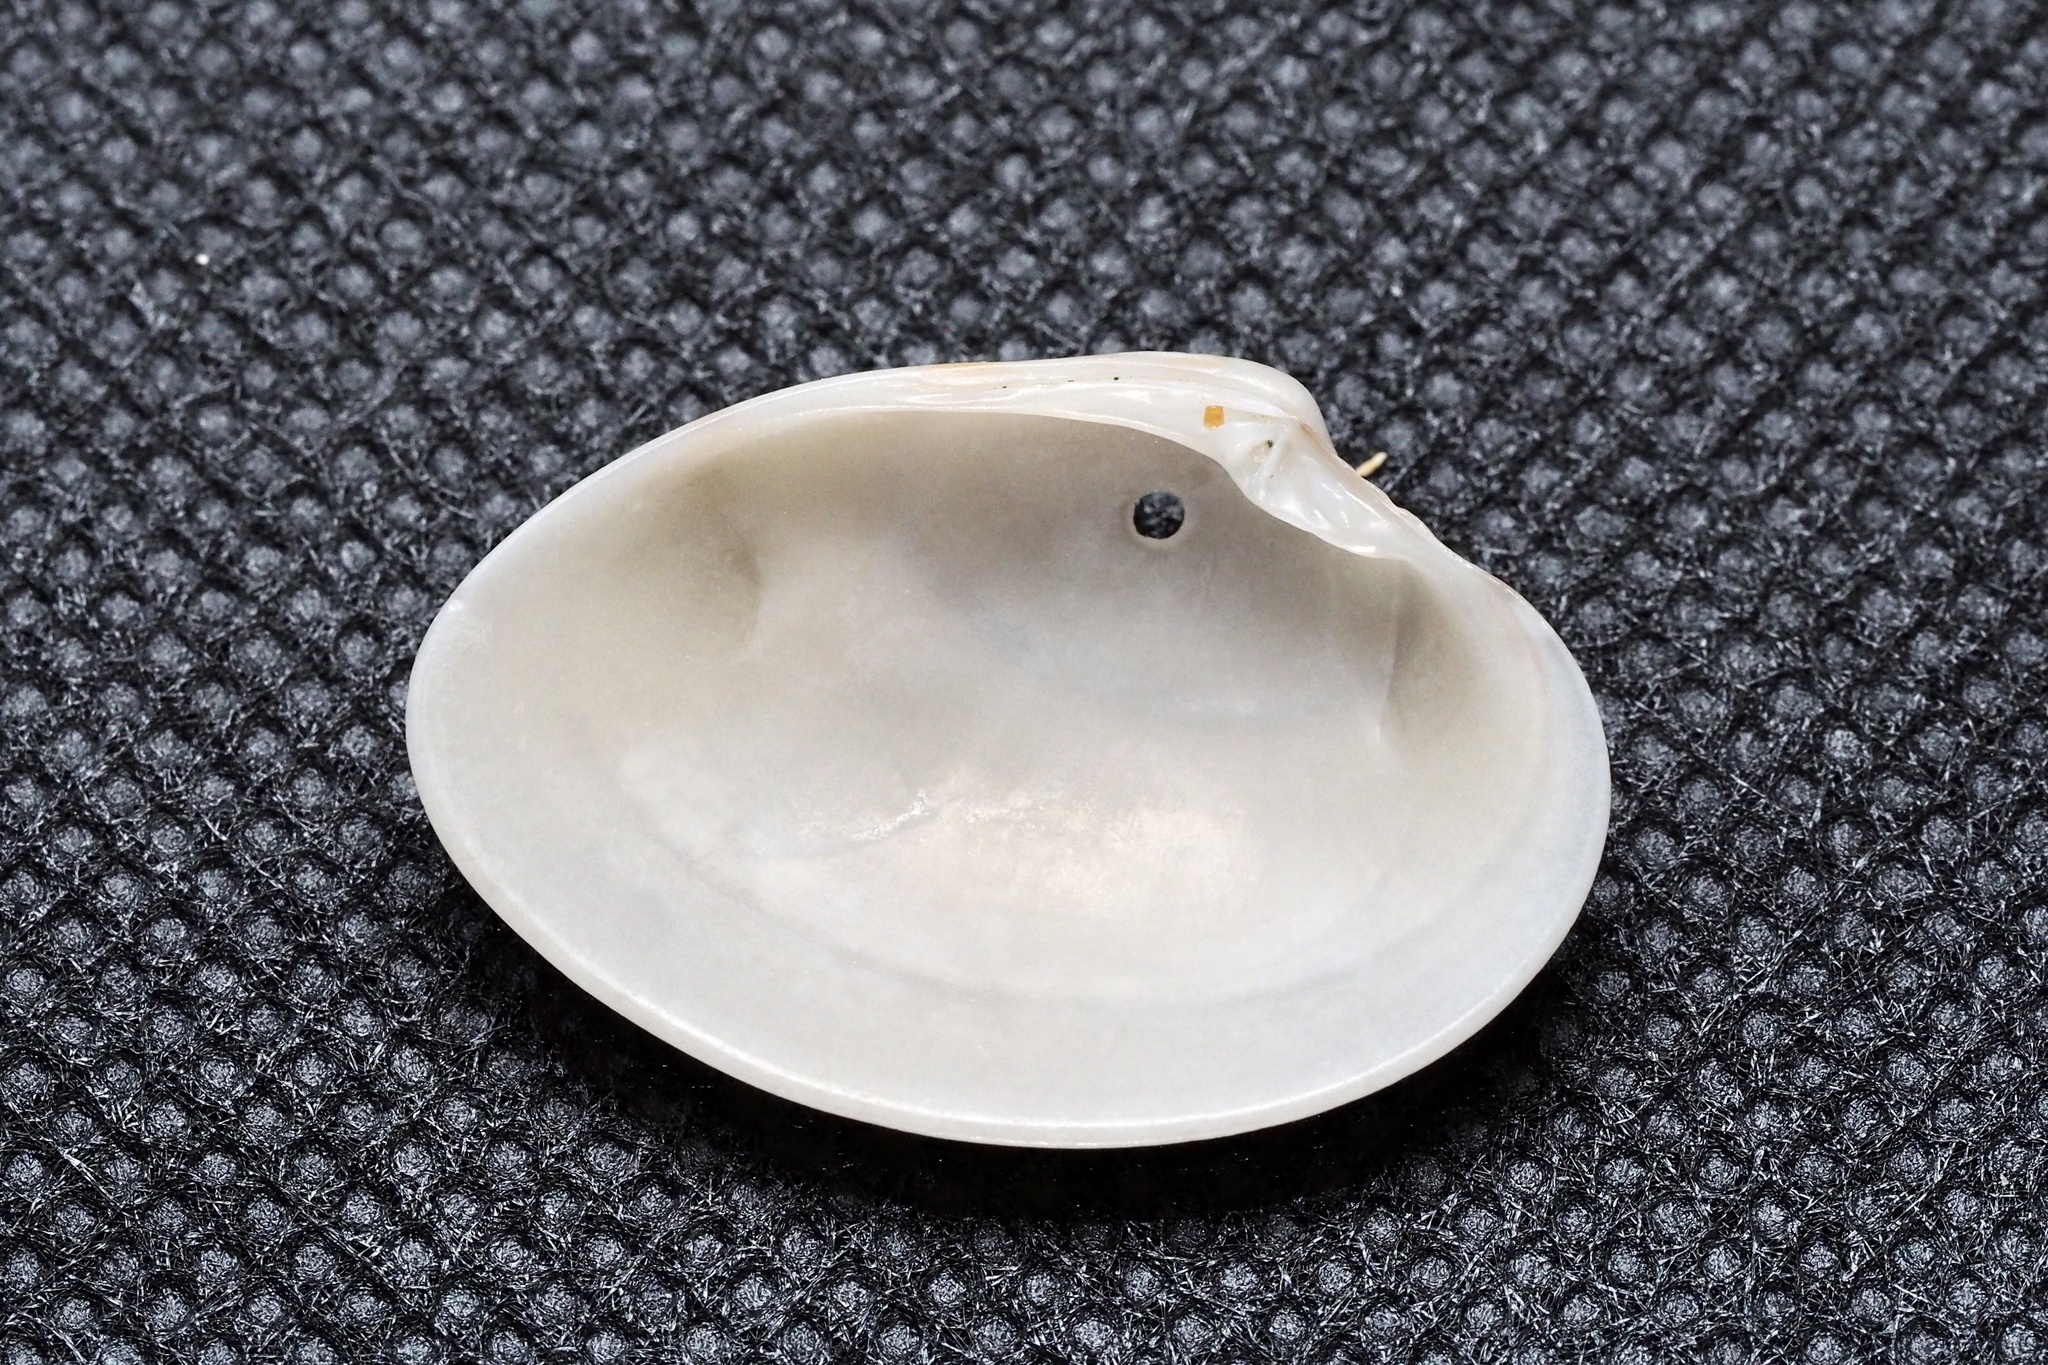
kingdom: Animalia
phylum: Mollusca
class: Bivalvia
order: Venerida
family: Veneridae
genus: Callista
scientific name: Callista chinensis
